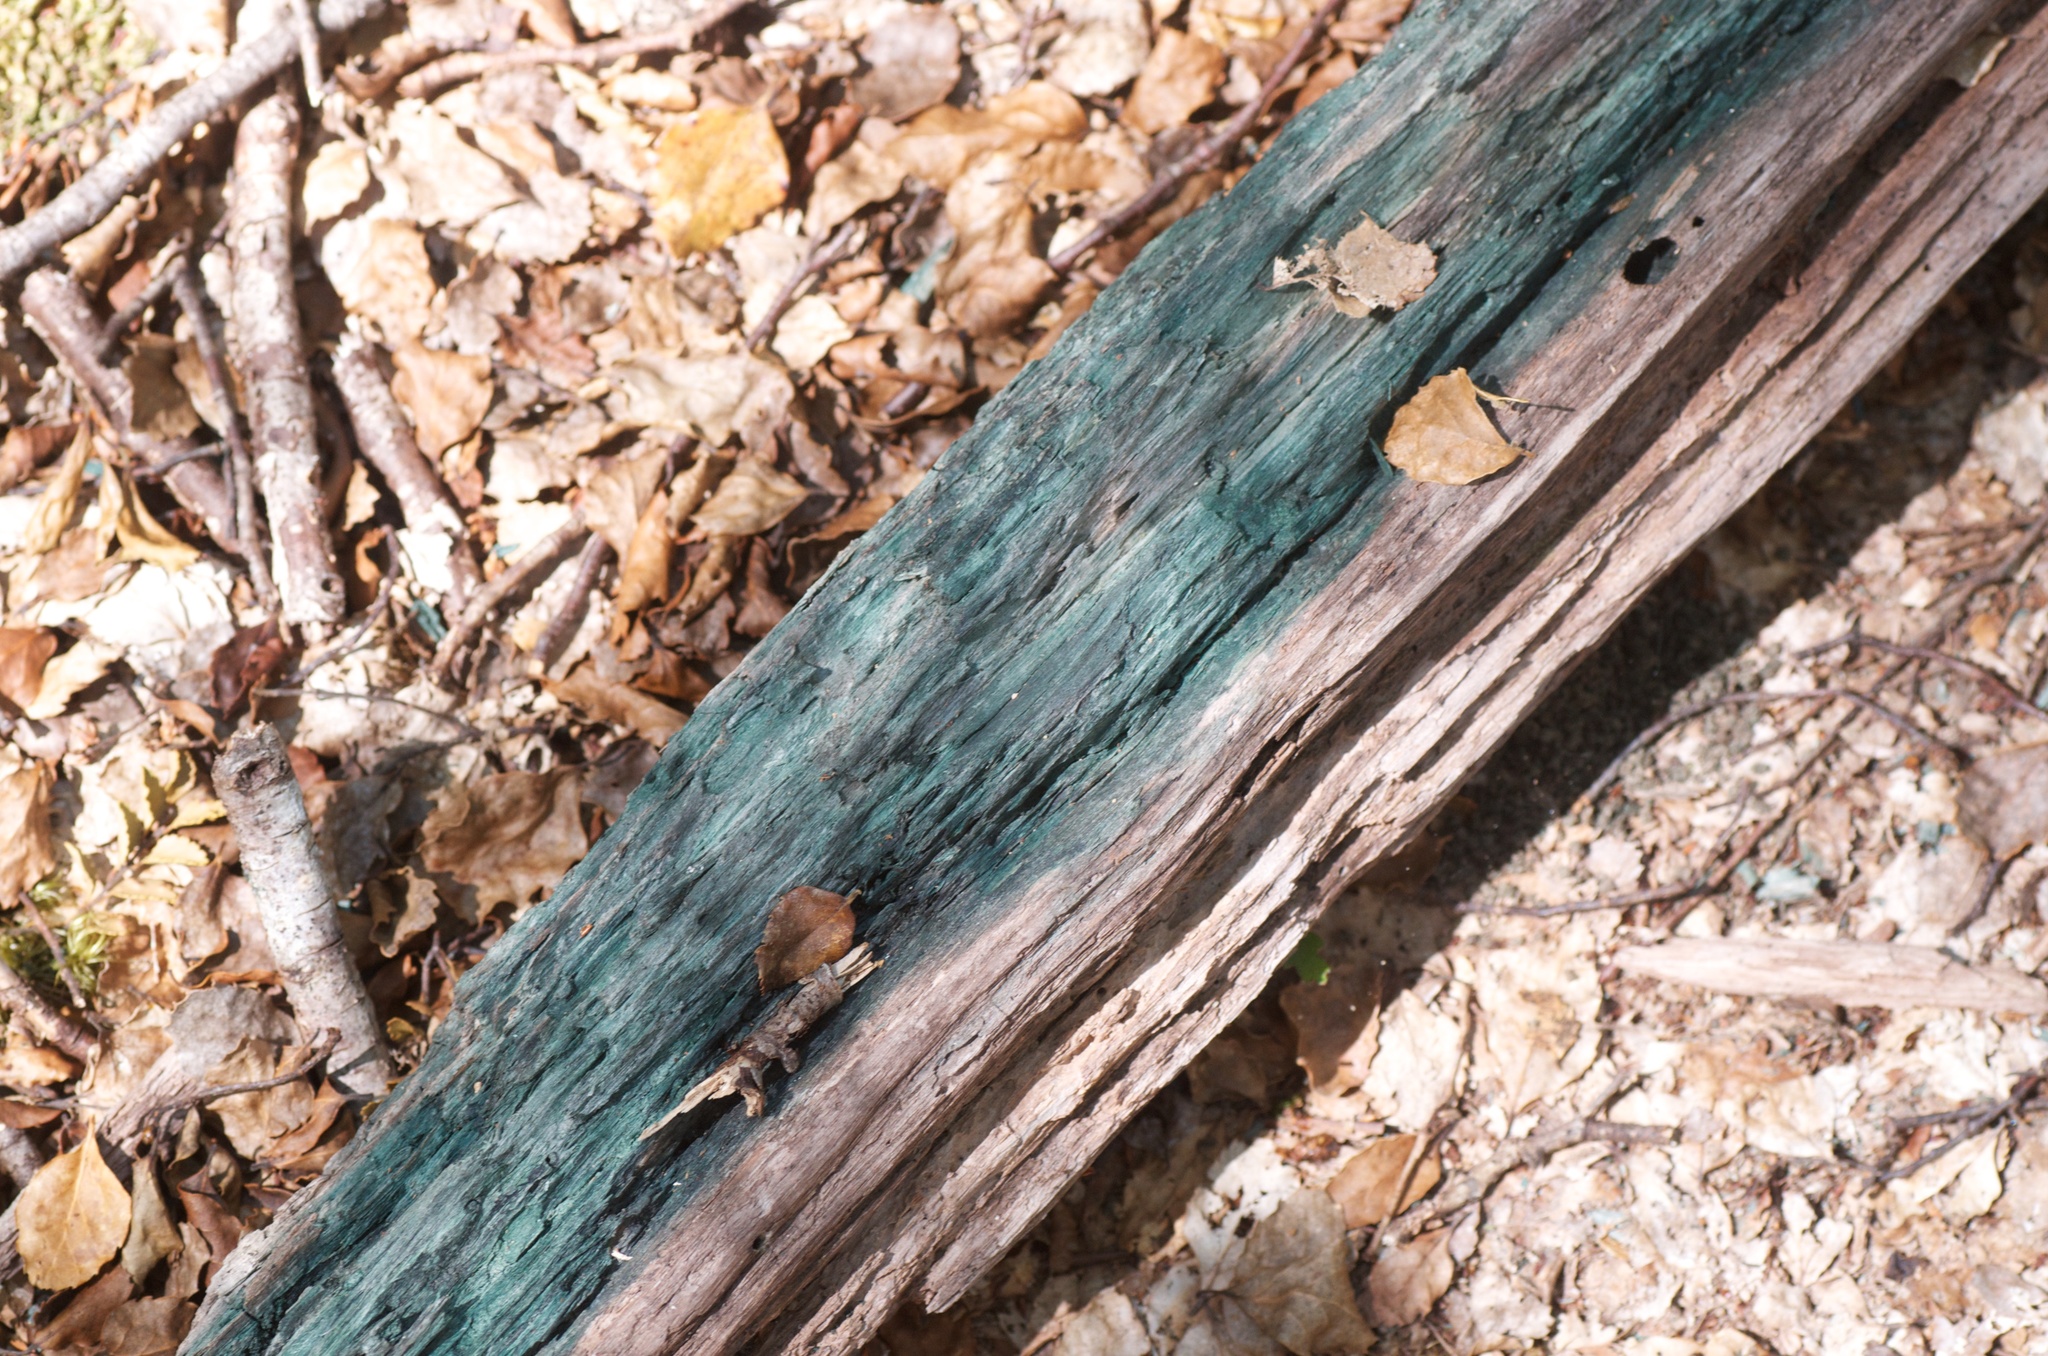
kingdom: Fungi
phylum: Ascomycota
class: Leotiomycetes
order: Helotiales
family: Chlorociboriaceae
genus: Chlorociboria
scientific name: Chlorociboria
